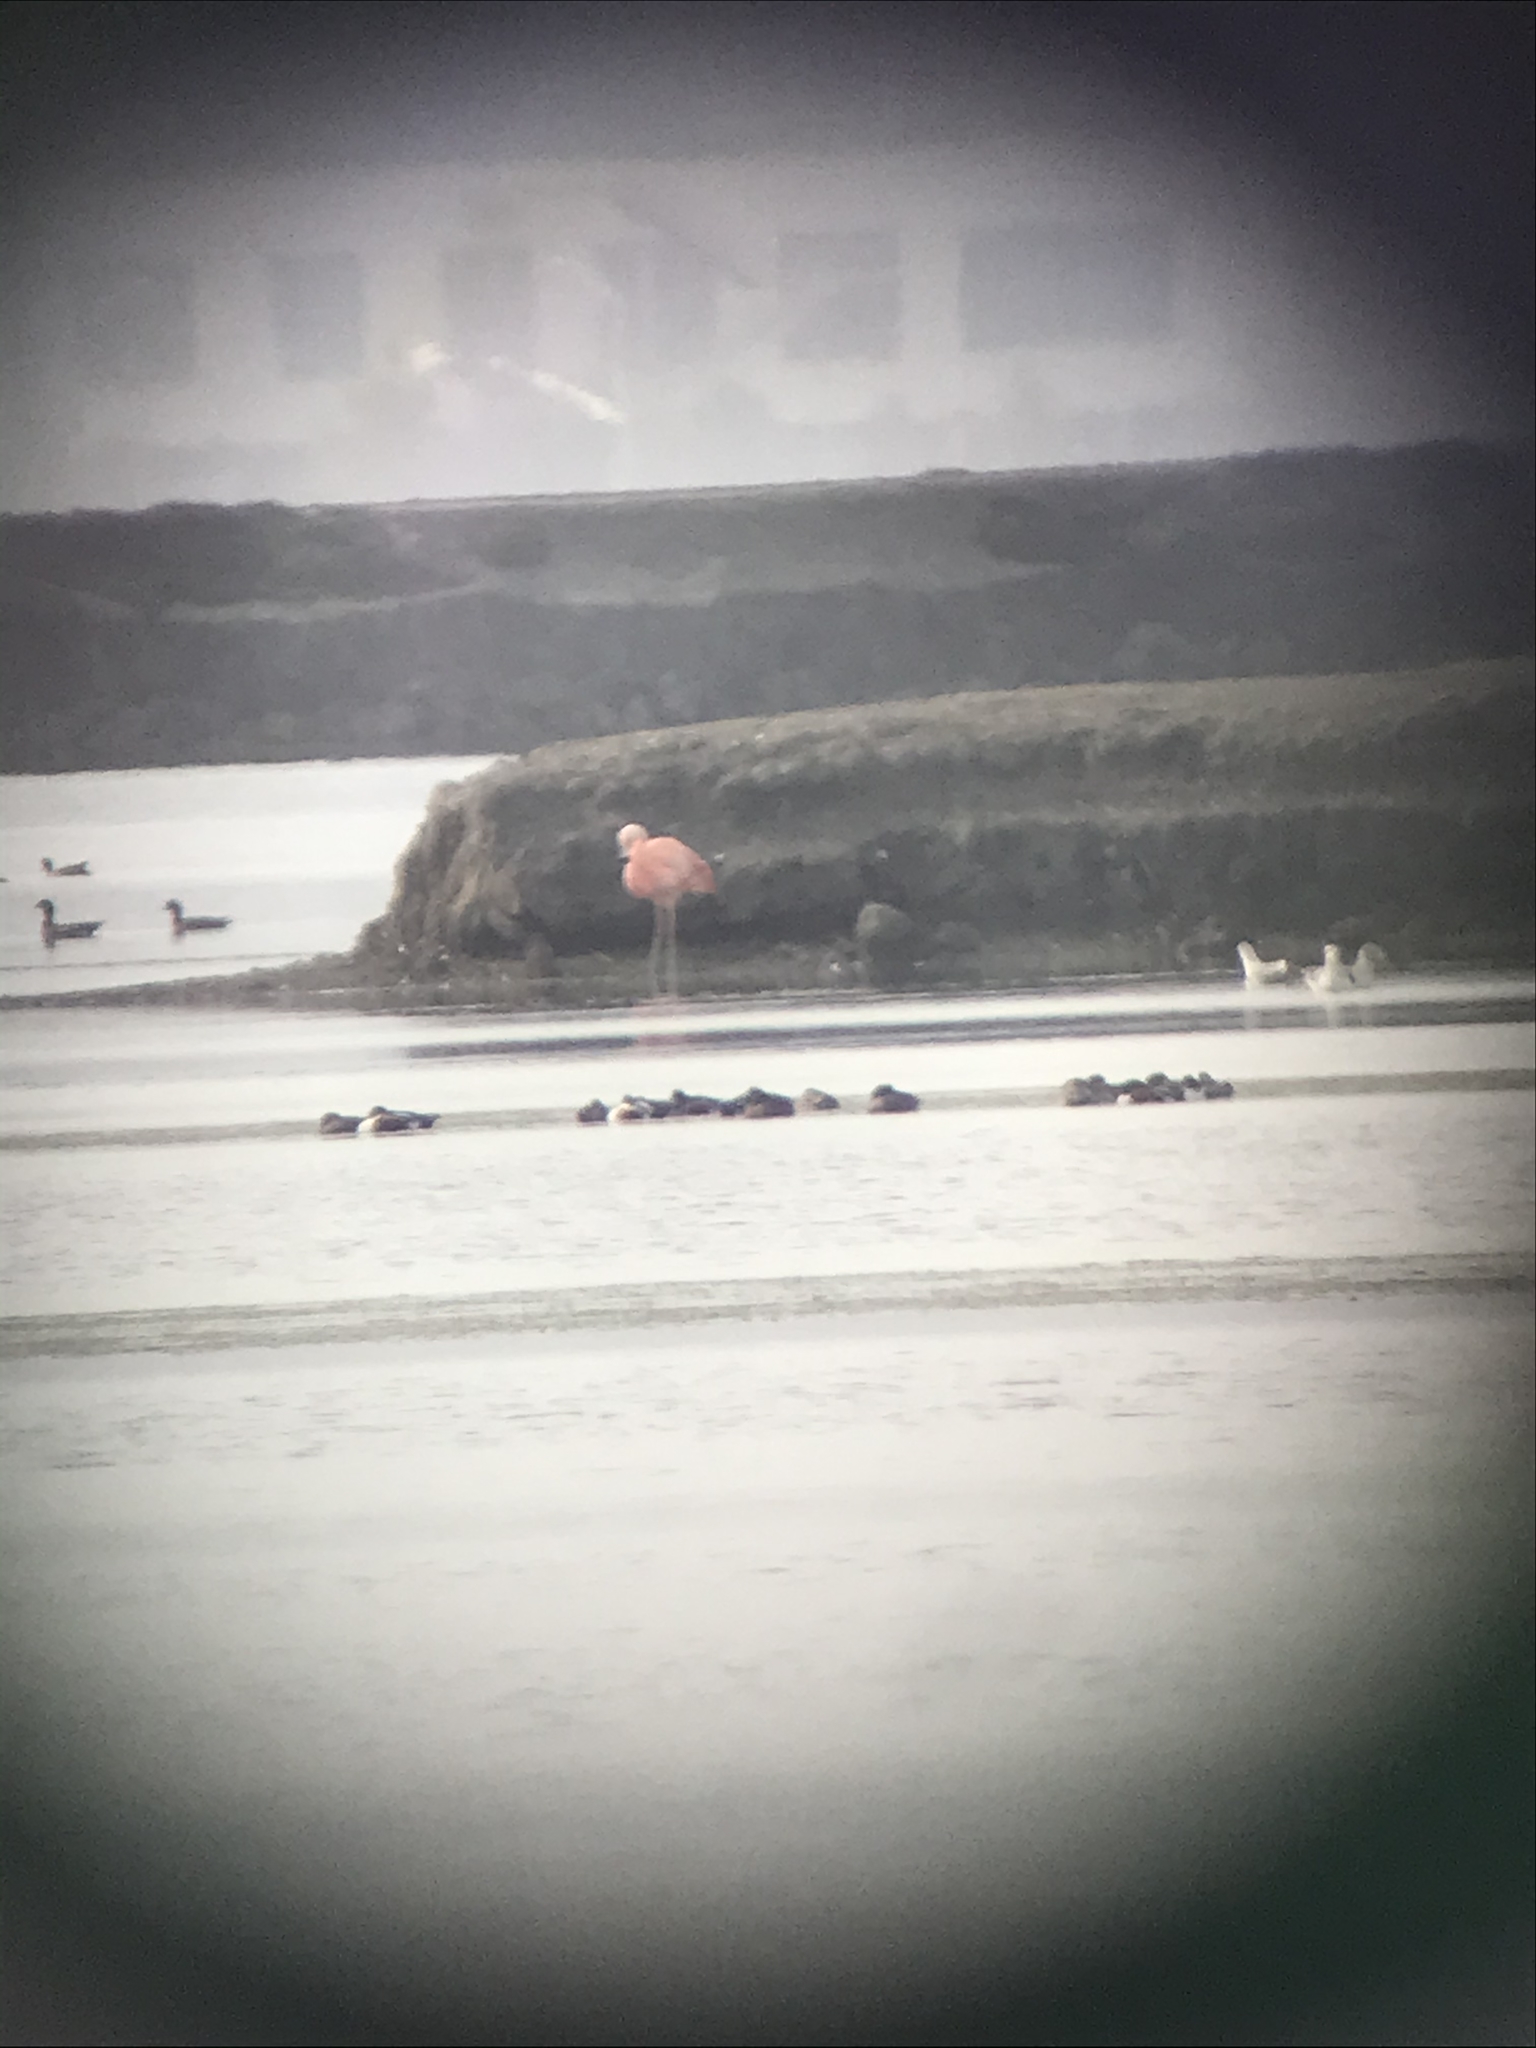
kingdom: Animalia
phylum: Chordata
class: Aves
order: Phoenicopteriformes
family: Phoenicopteridae
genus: Phoenicopterus
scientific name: Phoenicopterus chilensis
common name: Chilean flamingo
